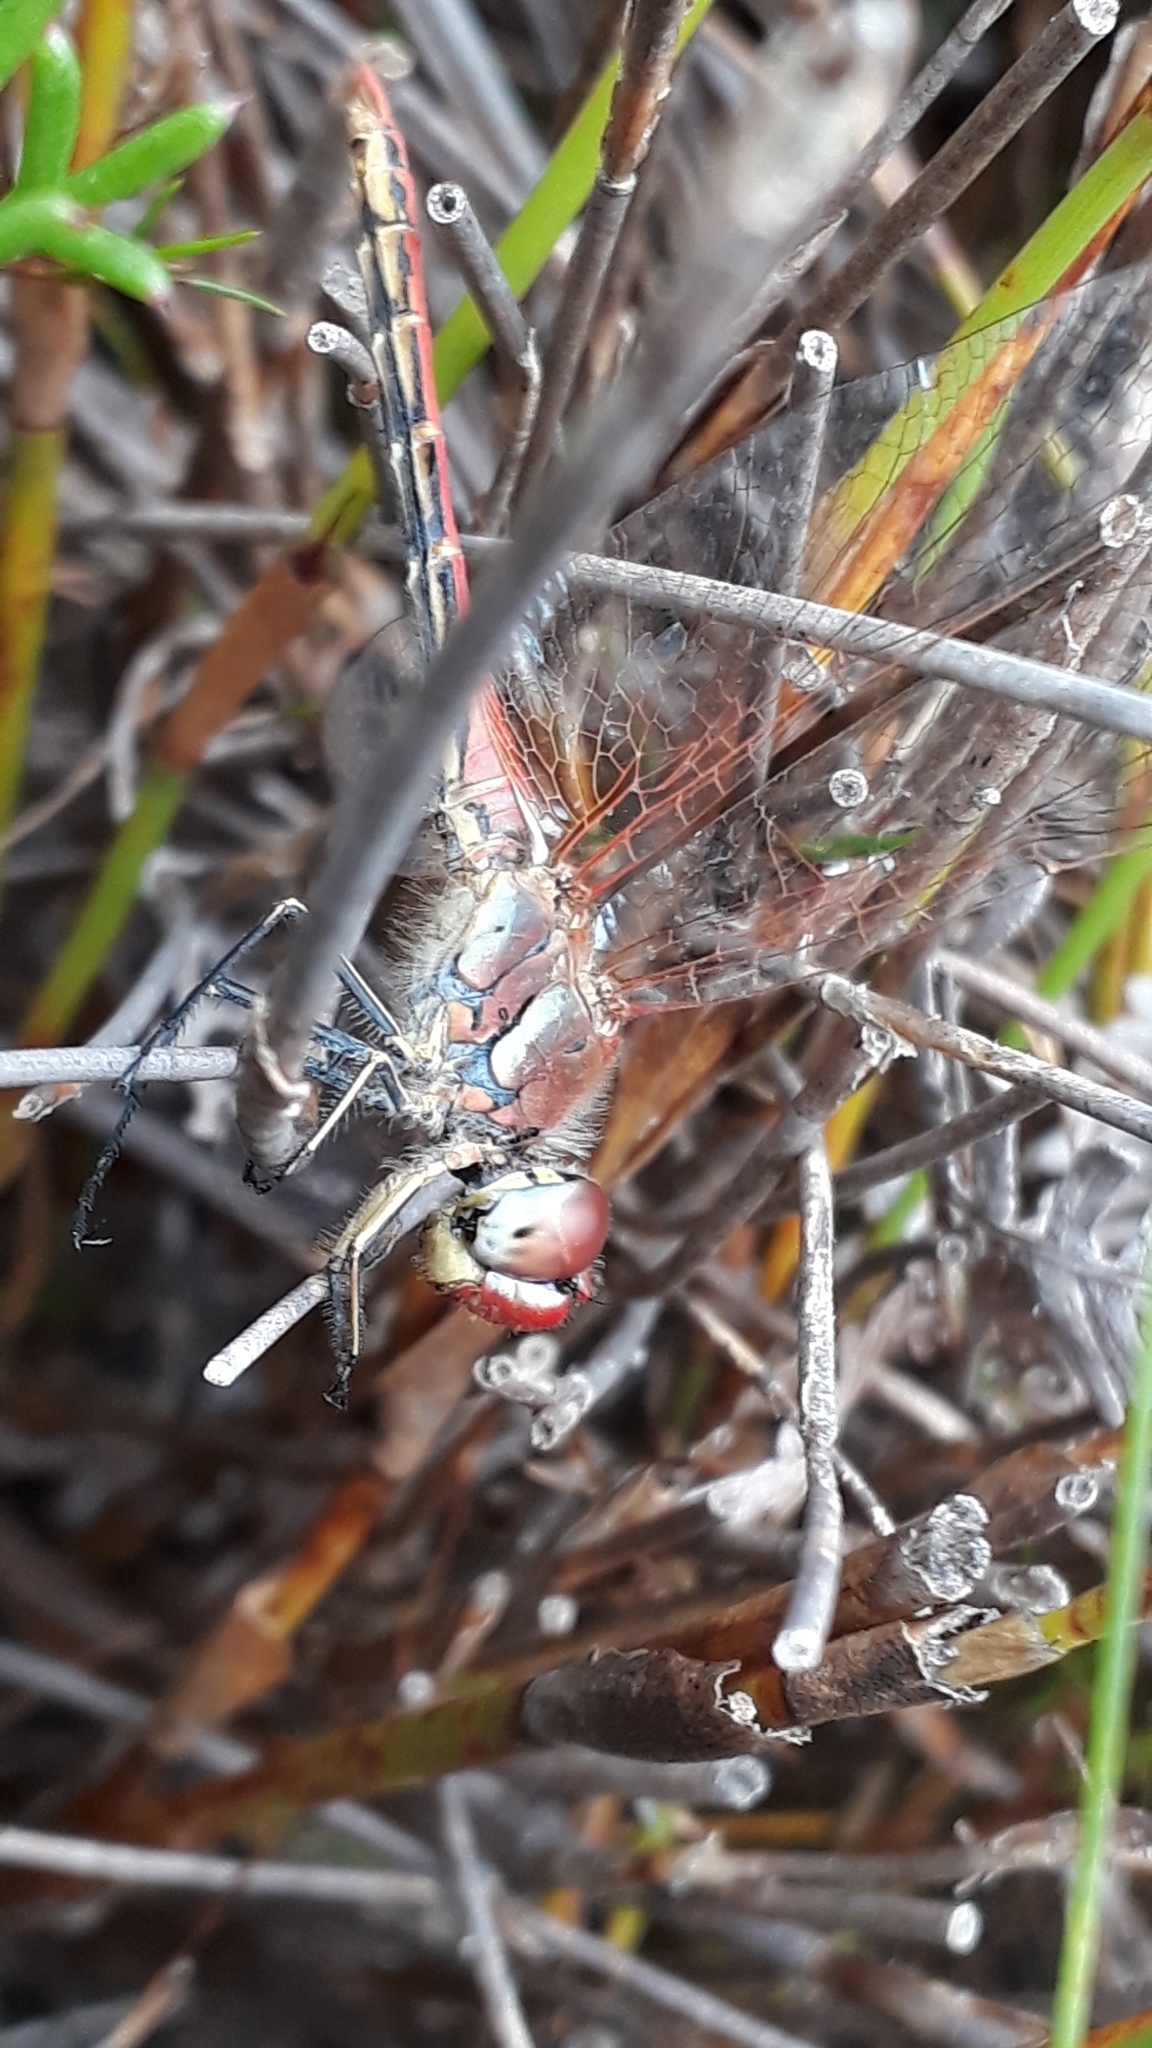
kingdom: Animalia
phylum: Arthropoda
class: Insecta
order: Odonata
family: Libellulidae
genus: Sympetrum
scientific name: Sympetrum fonscolombii
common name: Red-veined darter
